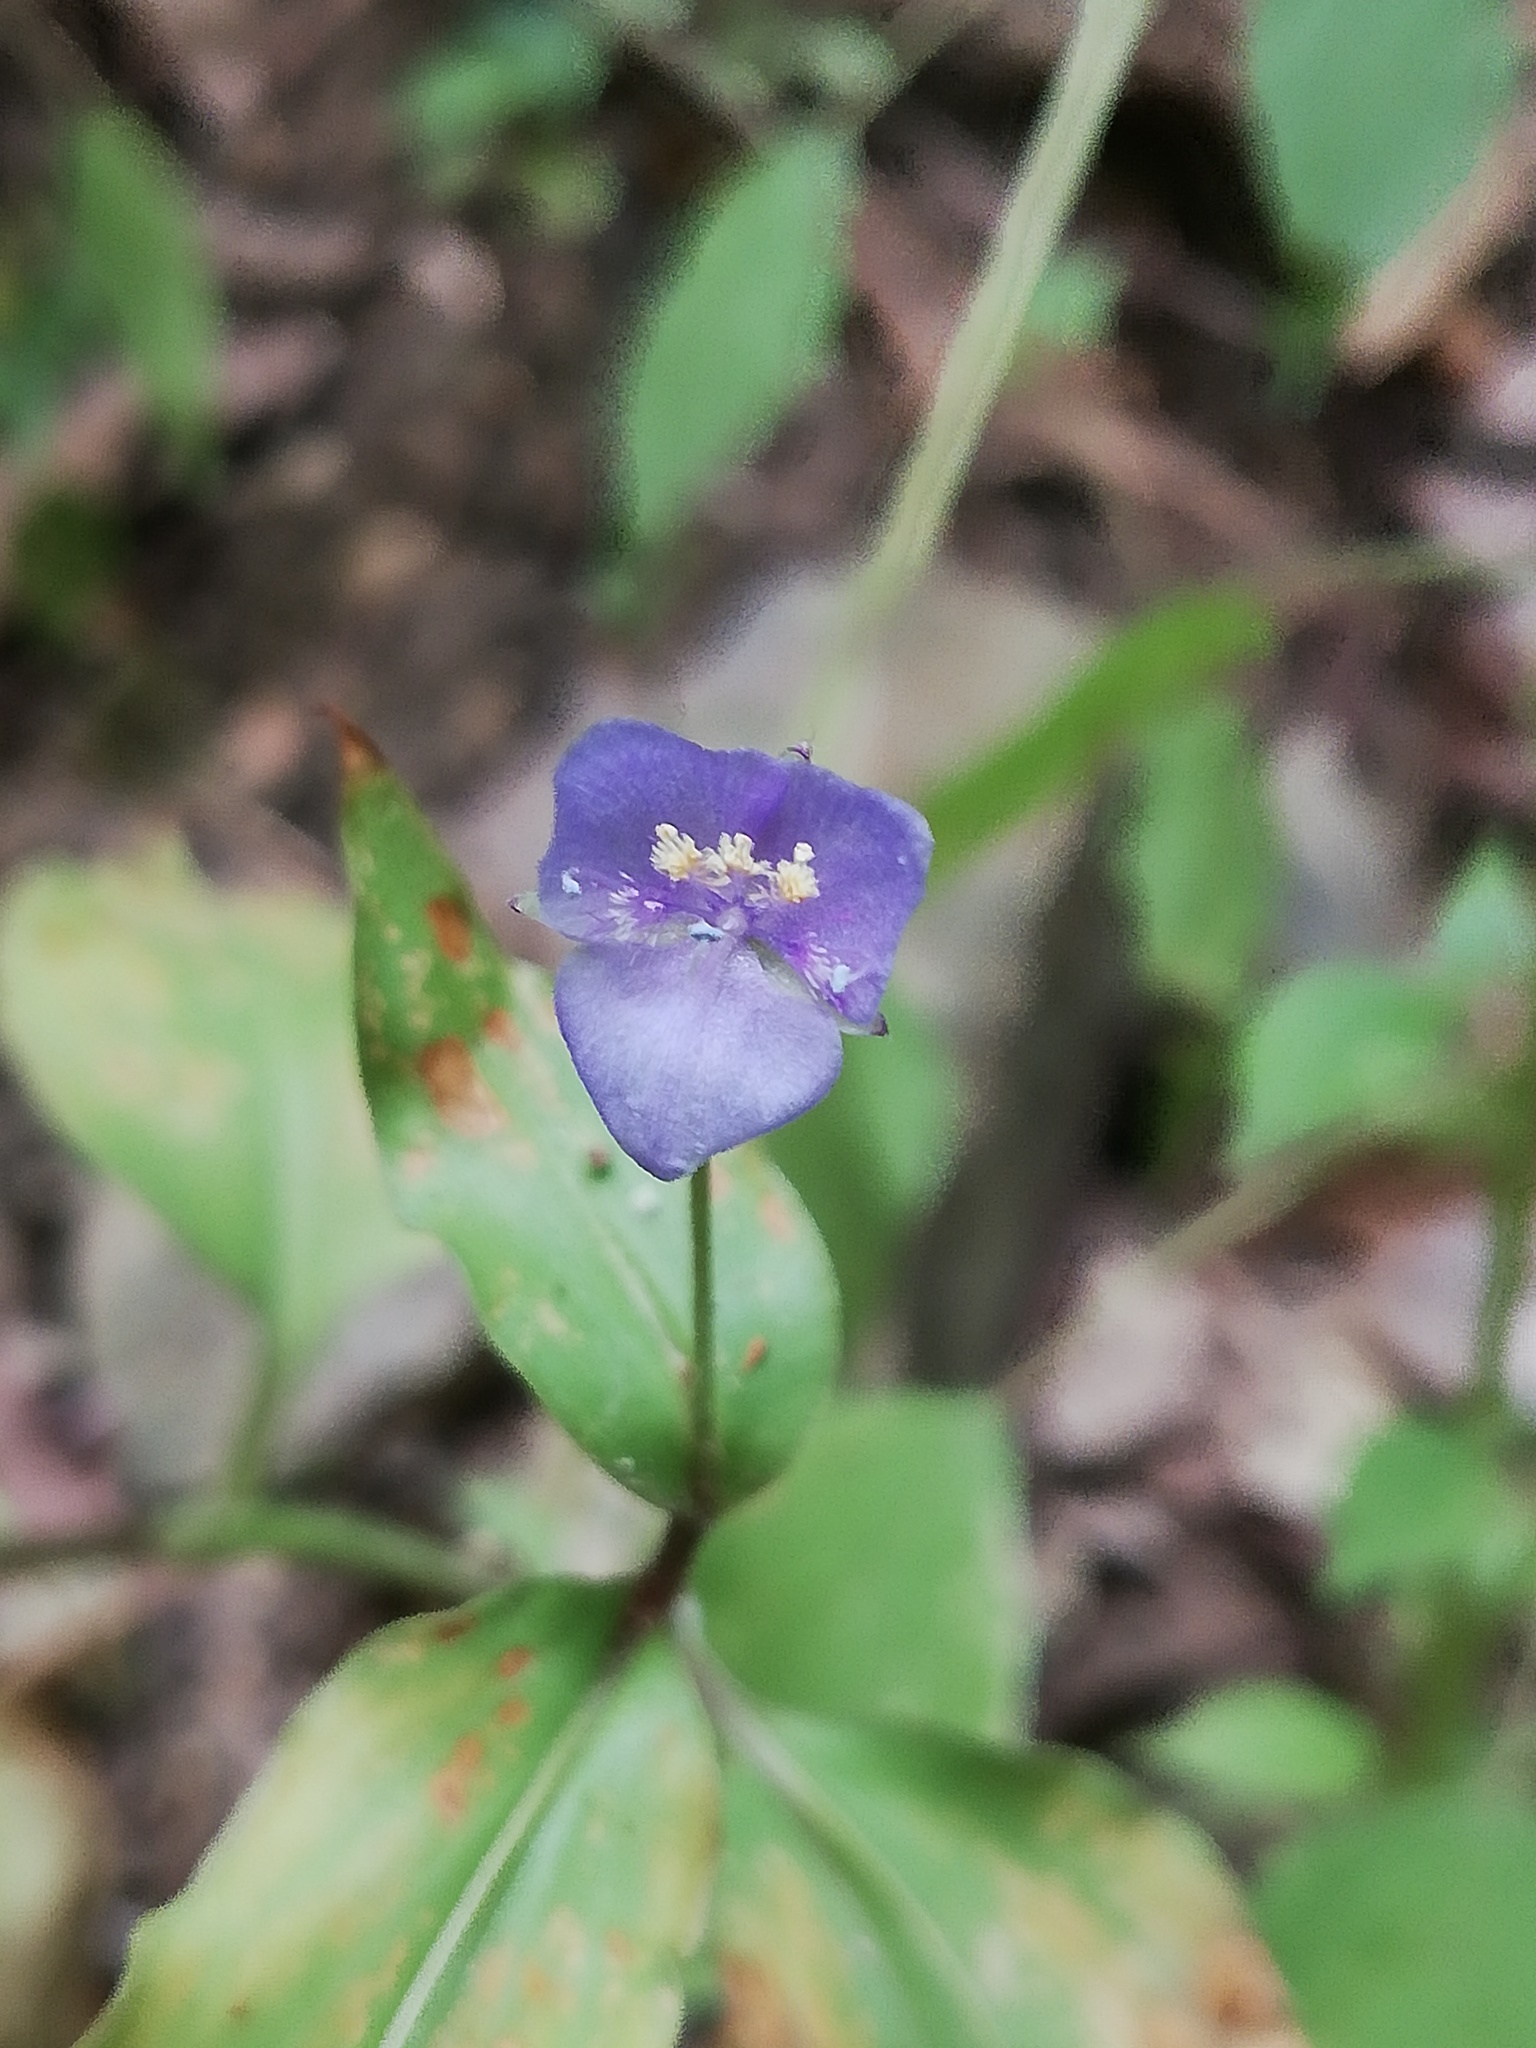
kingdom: Plantae
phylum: Tracheophyta
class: Liliopsida
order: Commelinales
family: Commelinaceae
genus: Tinantia
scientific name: Tinantia pringlei
